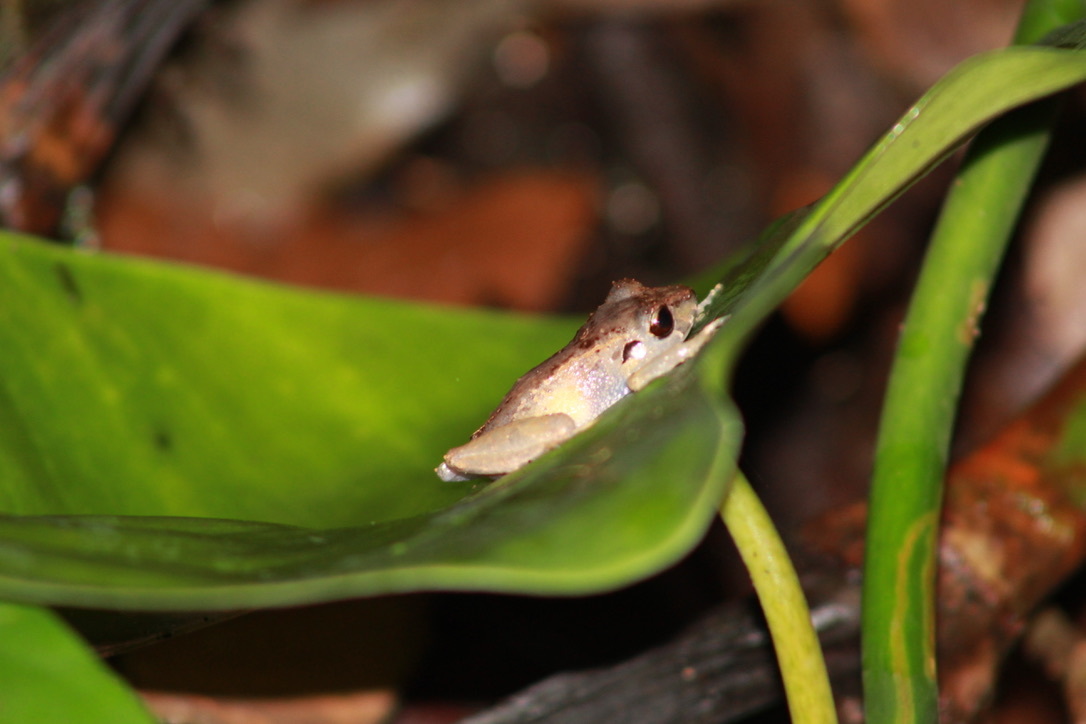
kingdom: Animalia
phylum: Chordata
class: Amphibia
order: Anura
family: Craugastoridae
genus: Pristimantis
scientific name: Pristimantis urichi
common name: Lesser antilles robber frog
